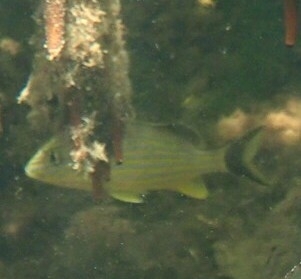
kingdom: Animalia
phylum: Chordata
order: Perciformes
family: Haemulidae
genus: Haemulon
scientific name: Haemulon sciurus
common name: Bluestriped grunt
